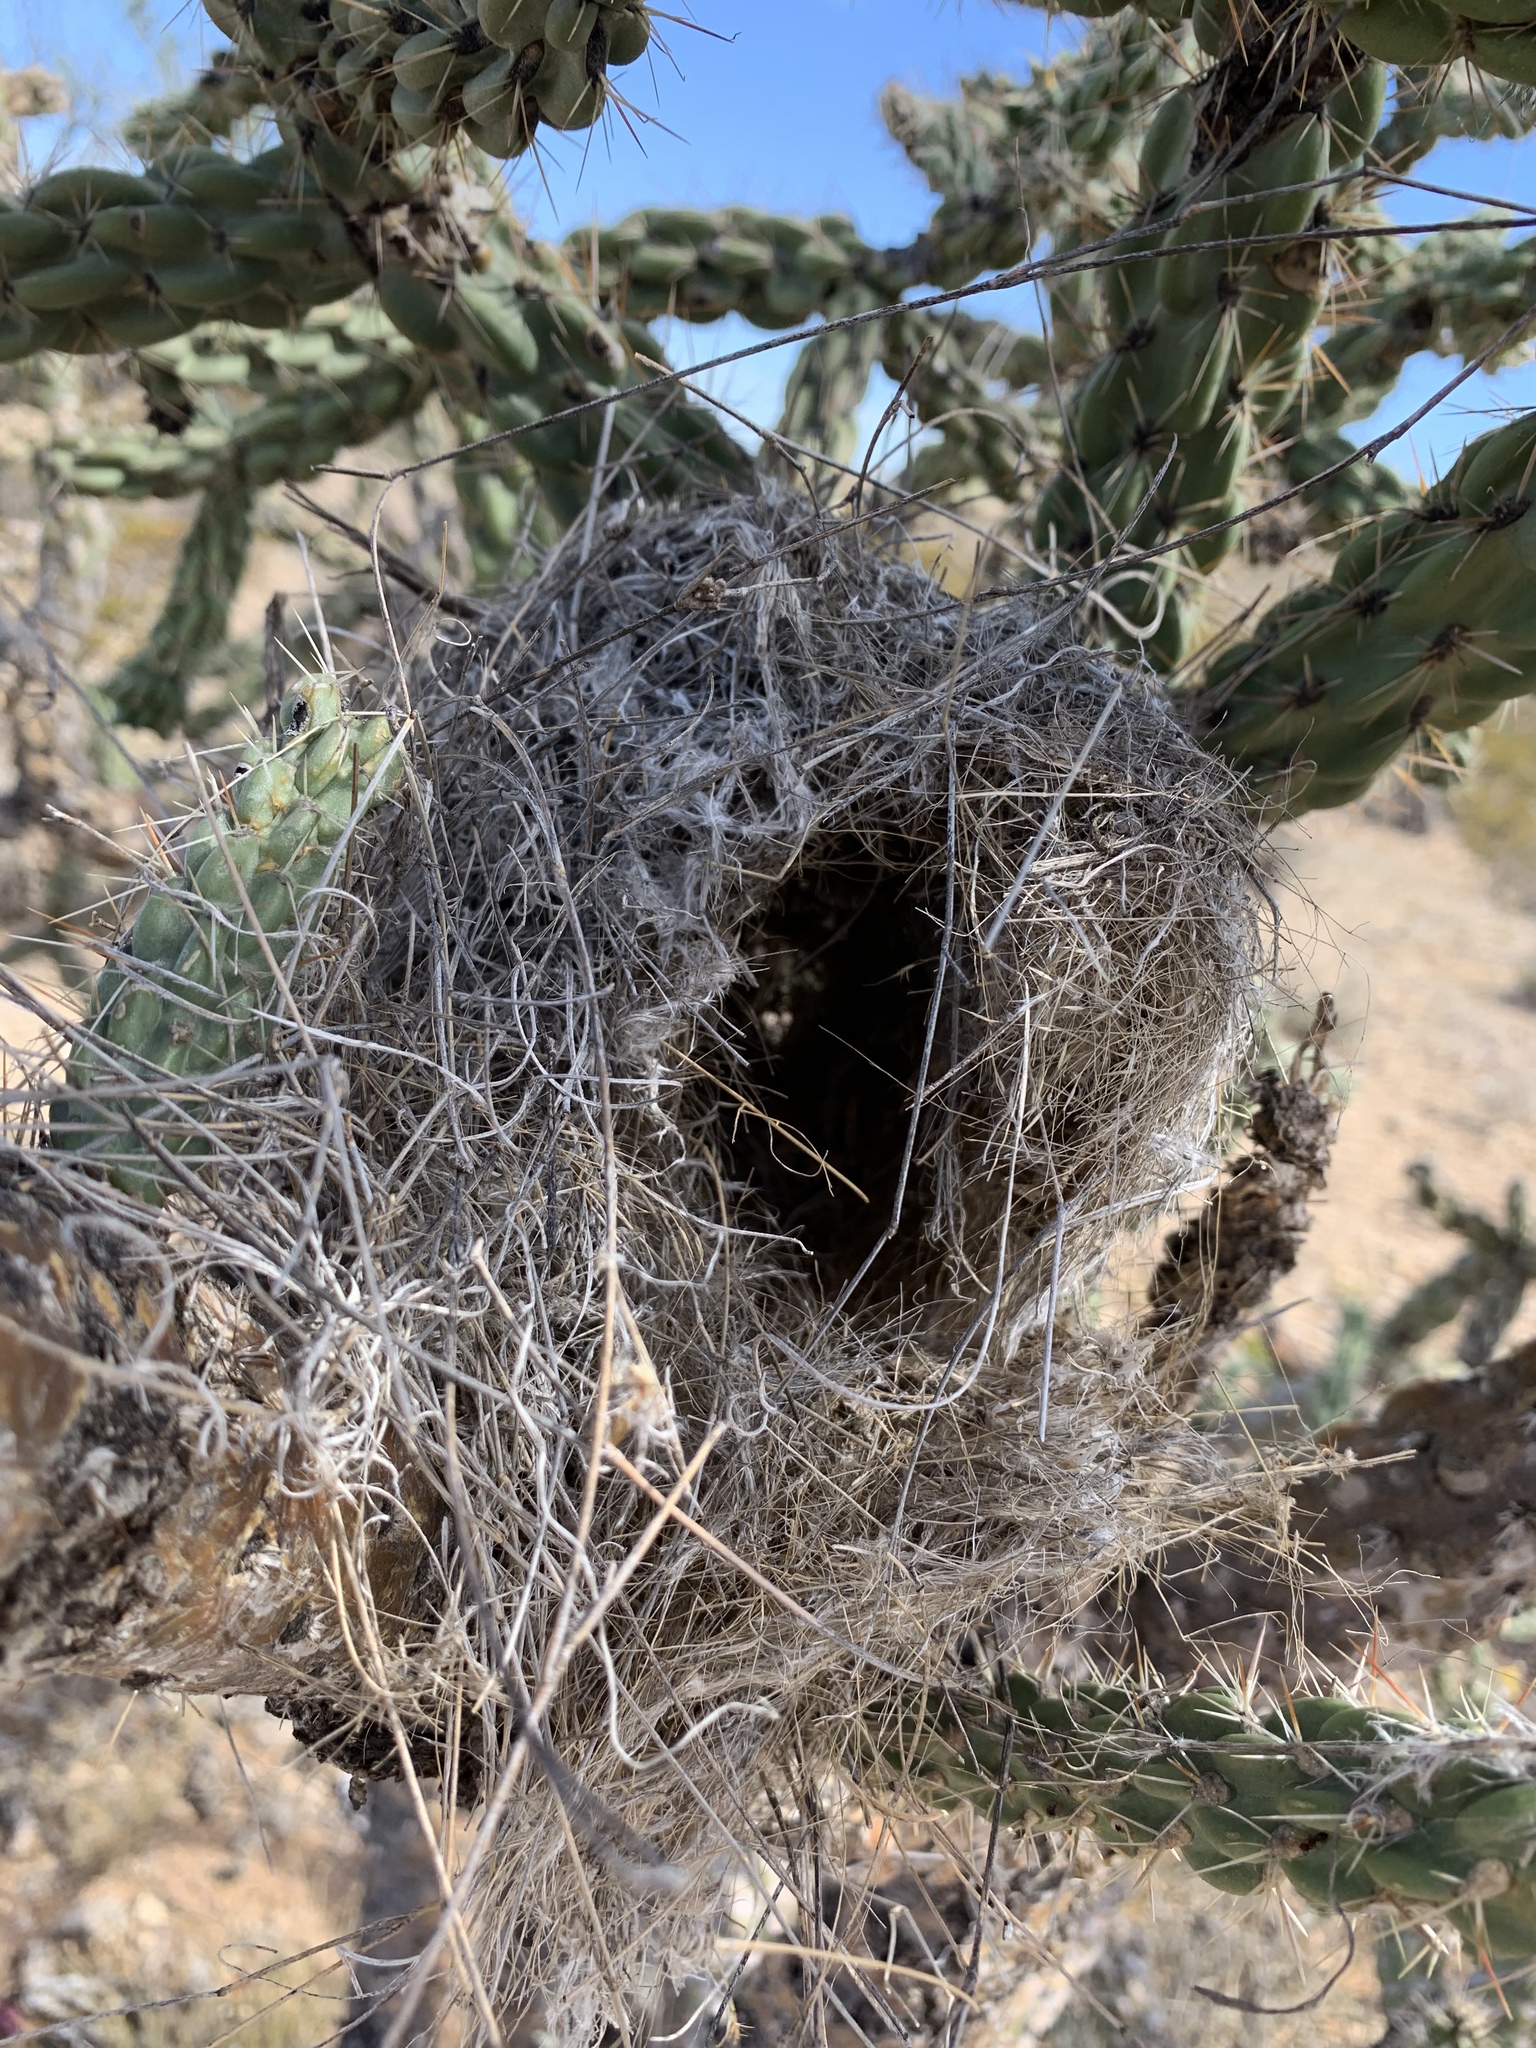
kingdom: Animalia
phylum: Chordata
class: Aves
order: Passeriformes
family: Troglodytidae
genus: Campylorhynchus
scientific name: Campylorhynchus brunneicapillus
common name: Cactus wren
